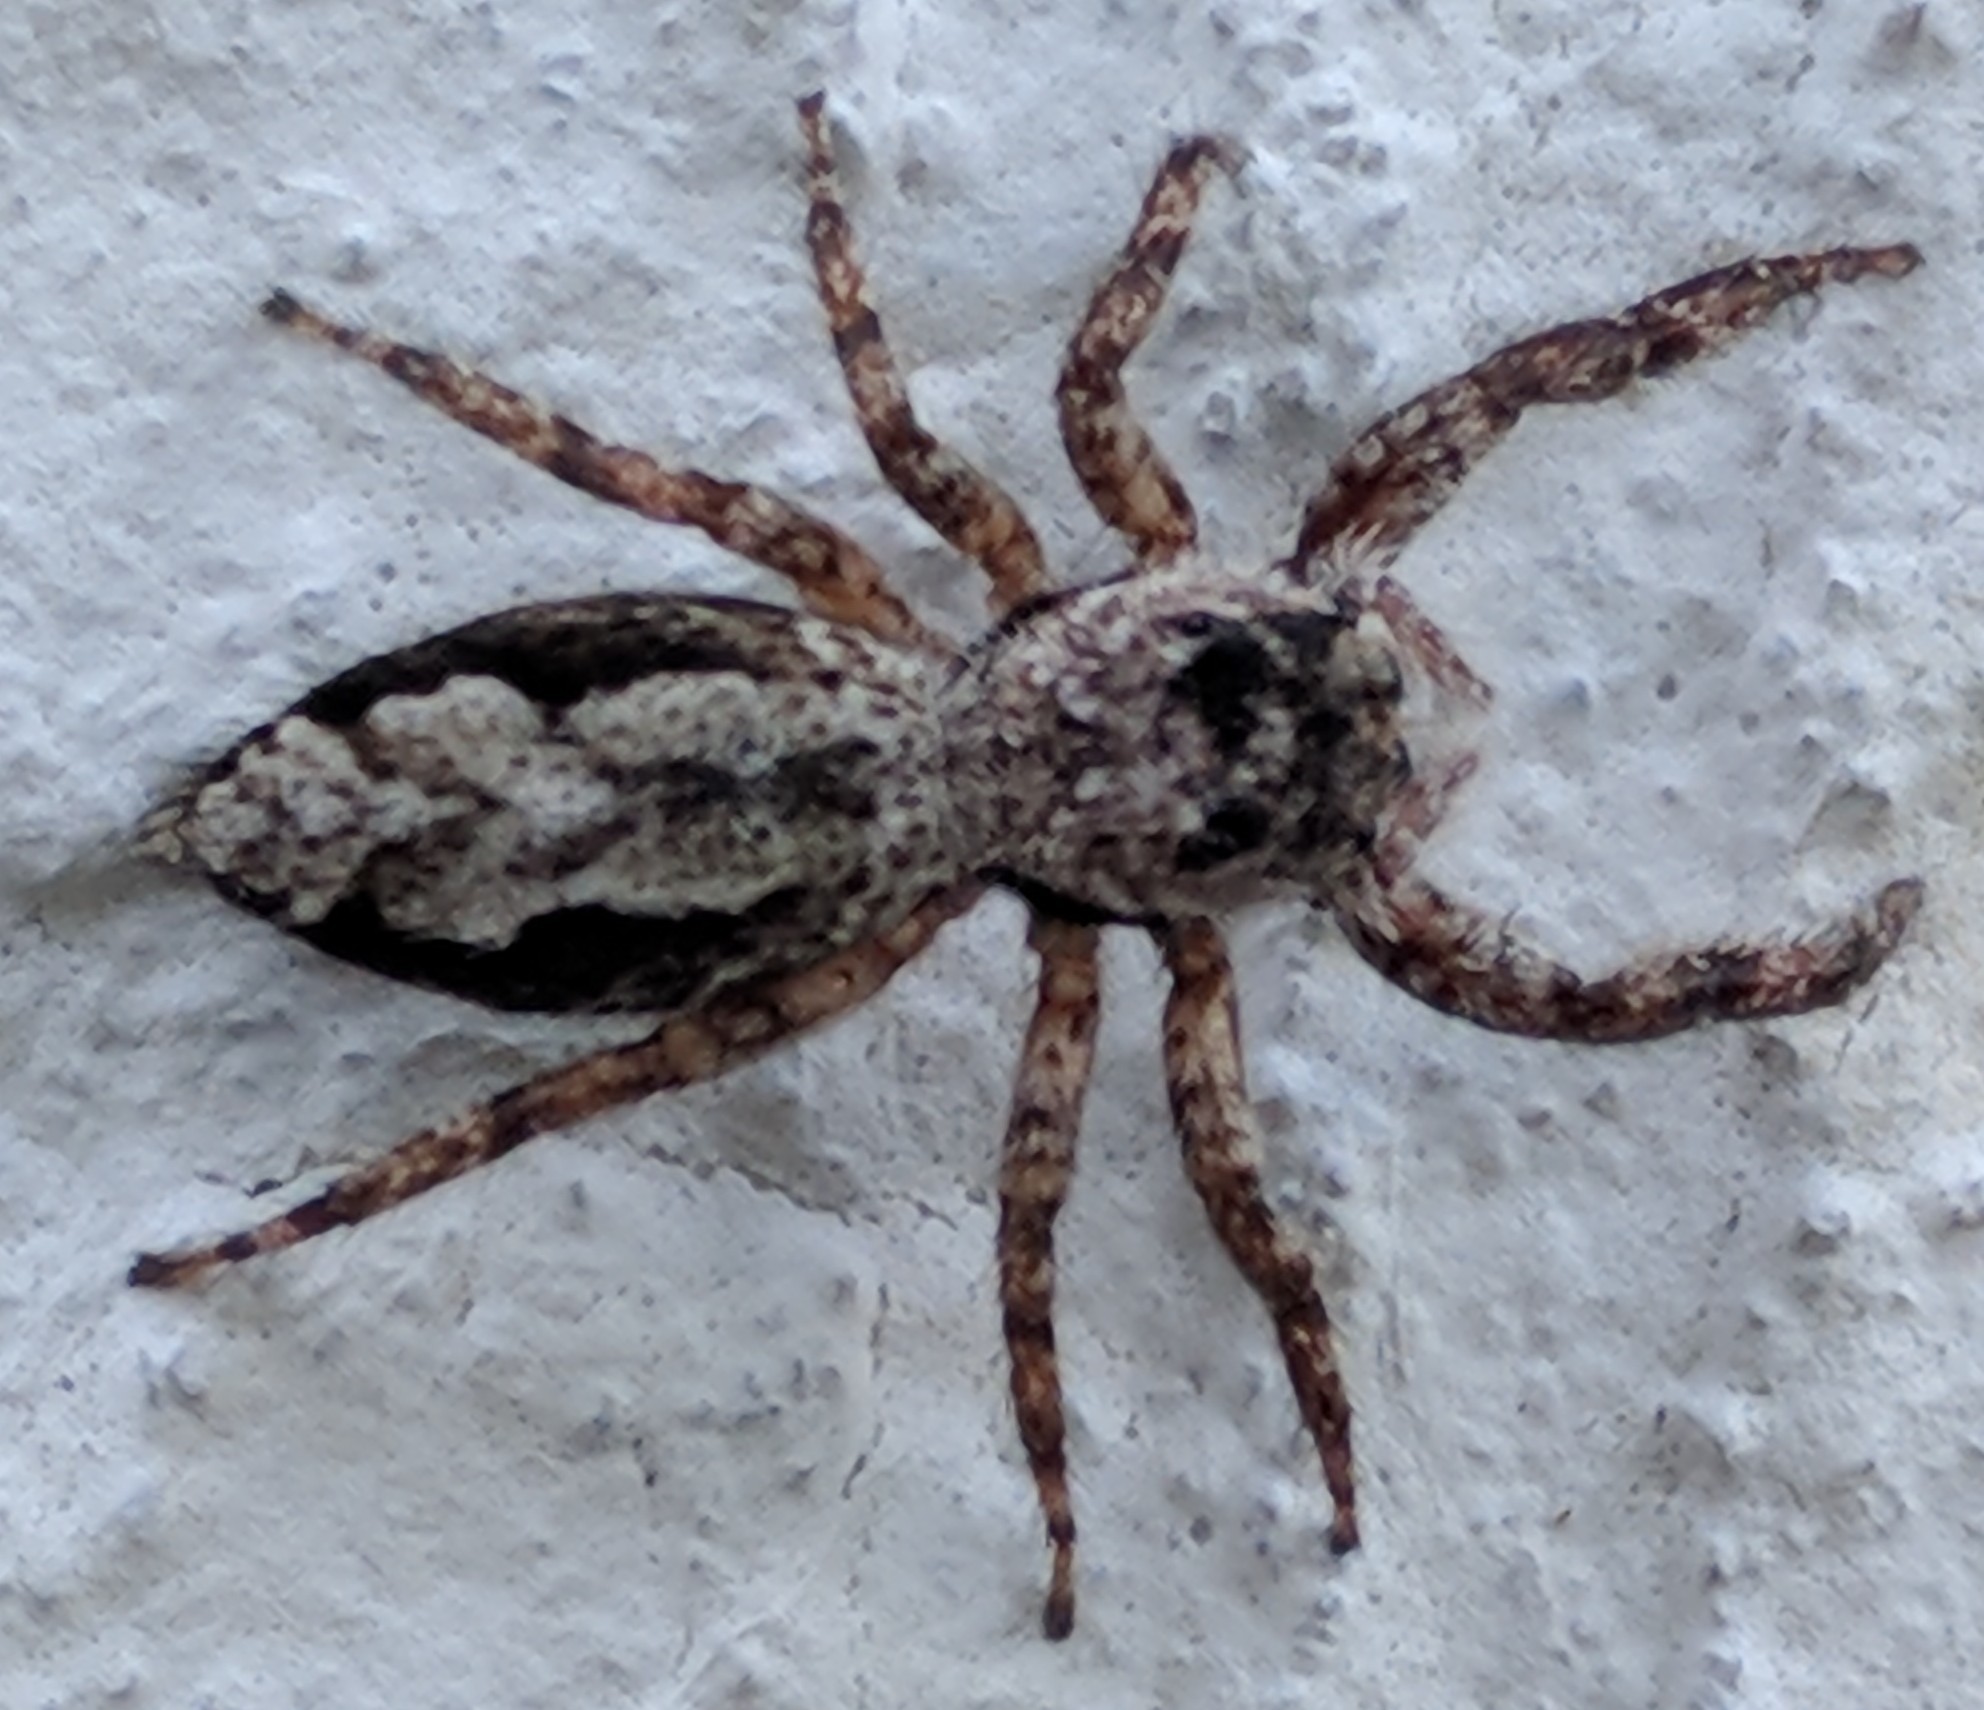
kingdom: Animalia
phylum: Arthropoda
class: Arachnida
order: Araneae
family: Salticidae
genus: Platycryptus
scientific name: Platycryptus undatus
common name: Tan jumping spider
